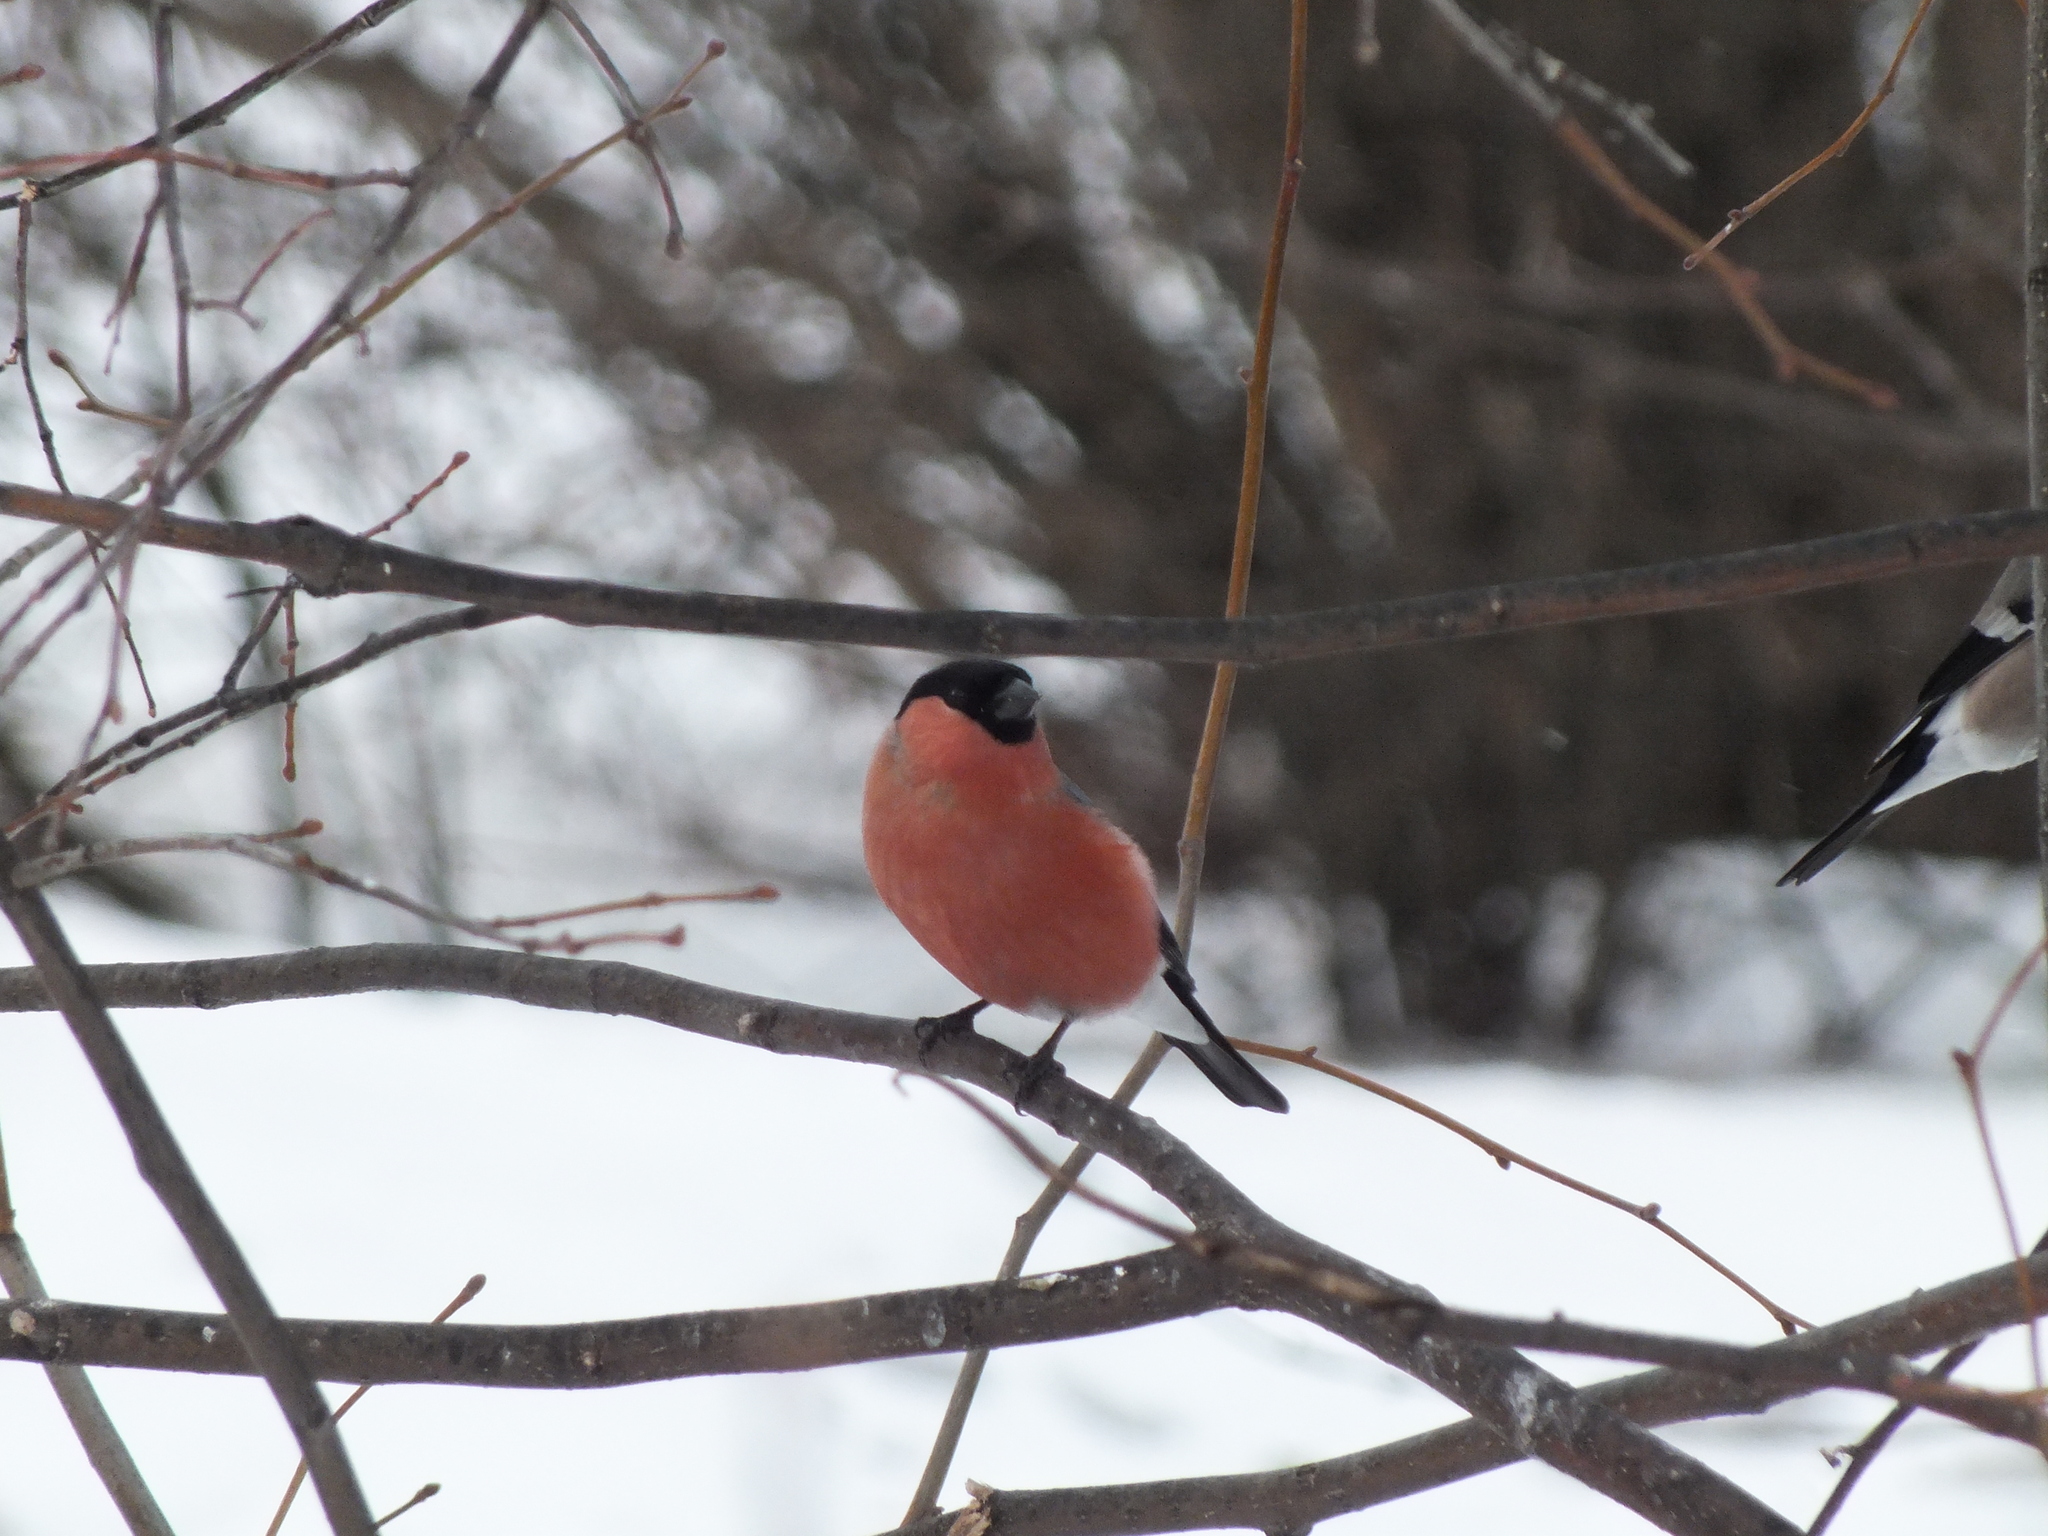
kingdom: Animalia
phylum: Chordata
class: Aves
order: Passeriformes
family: Fringillidae
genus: Pyrrhula
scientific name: Pyrrhula pyrrhula
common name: Eurasian bullfinch
